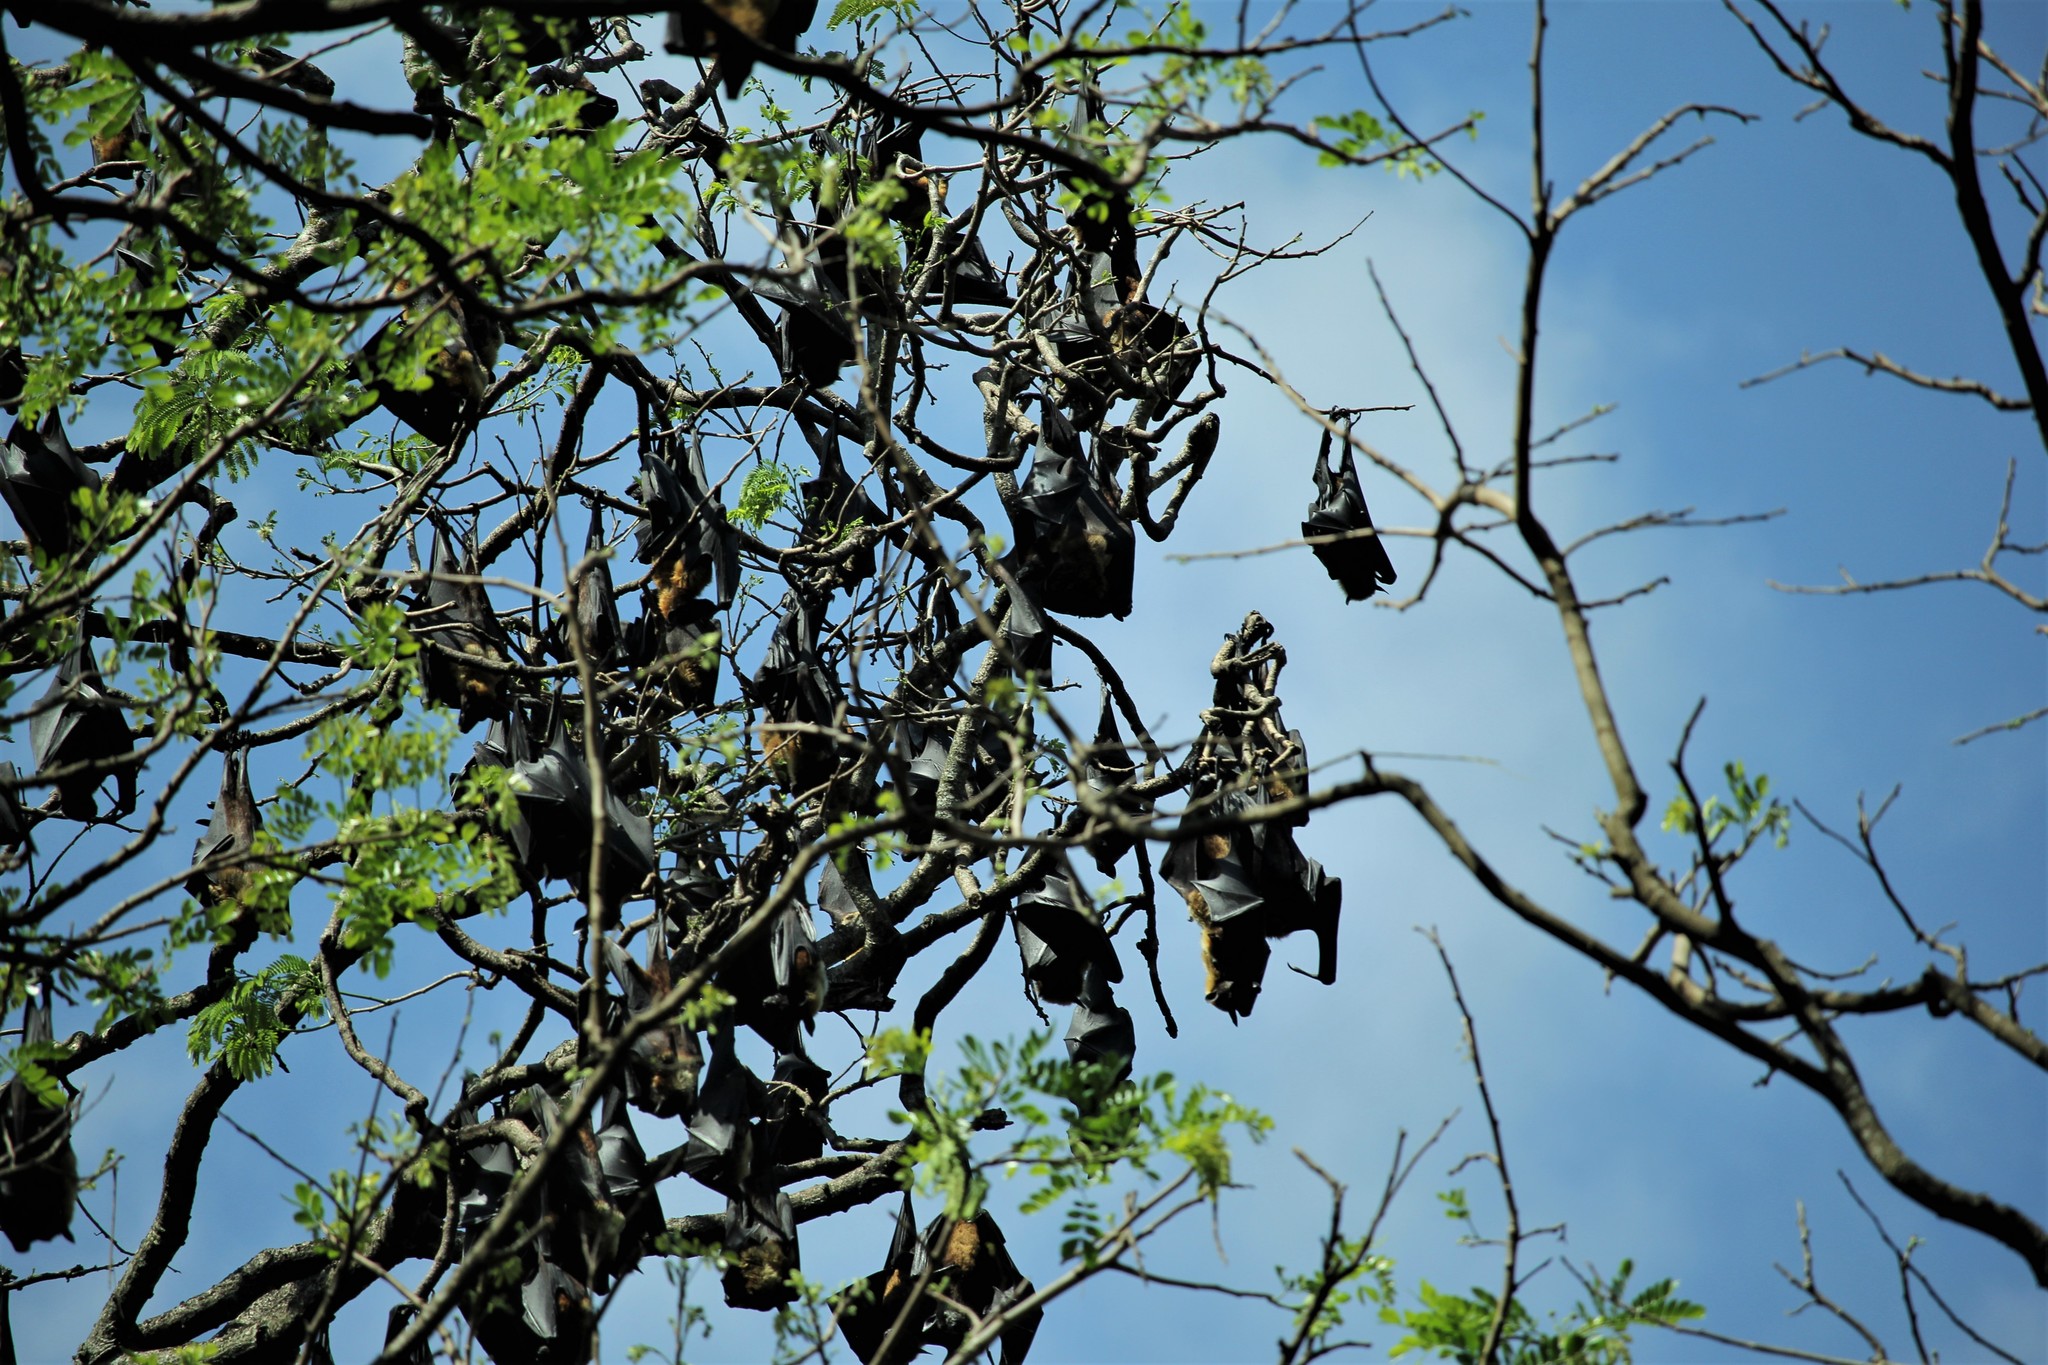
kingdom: Animalia
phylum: Chordata
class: Mammalia
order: Chiroptera
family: Pteropodidae
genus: Pteropus
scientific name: Pteropus vampyrus
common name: Large flying fox
